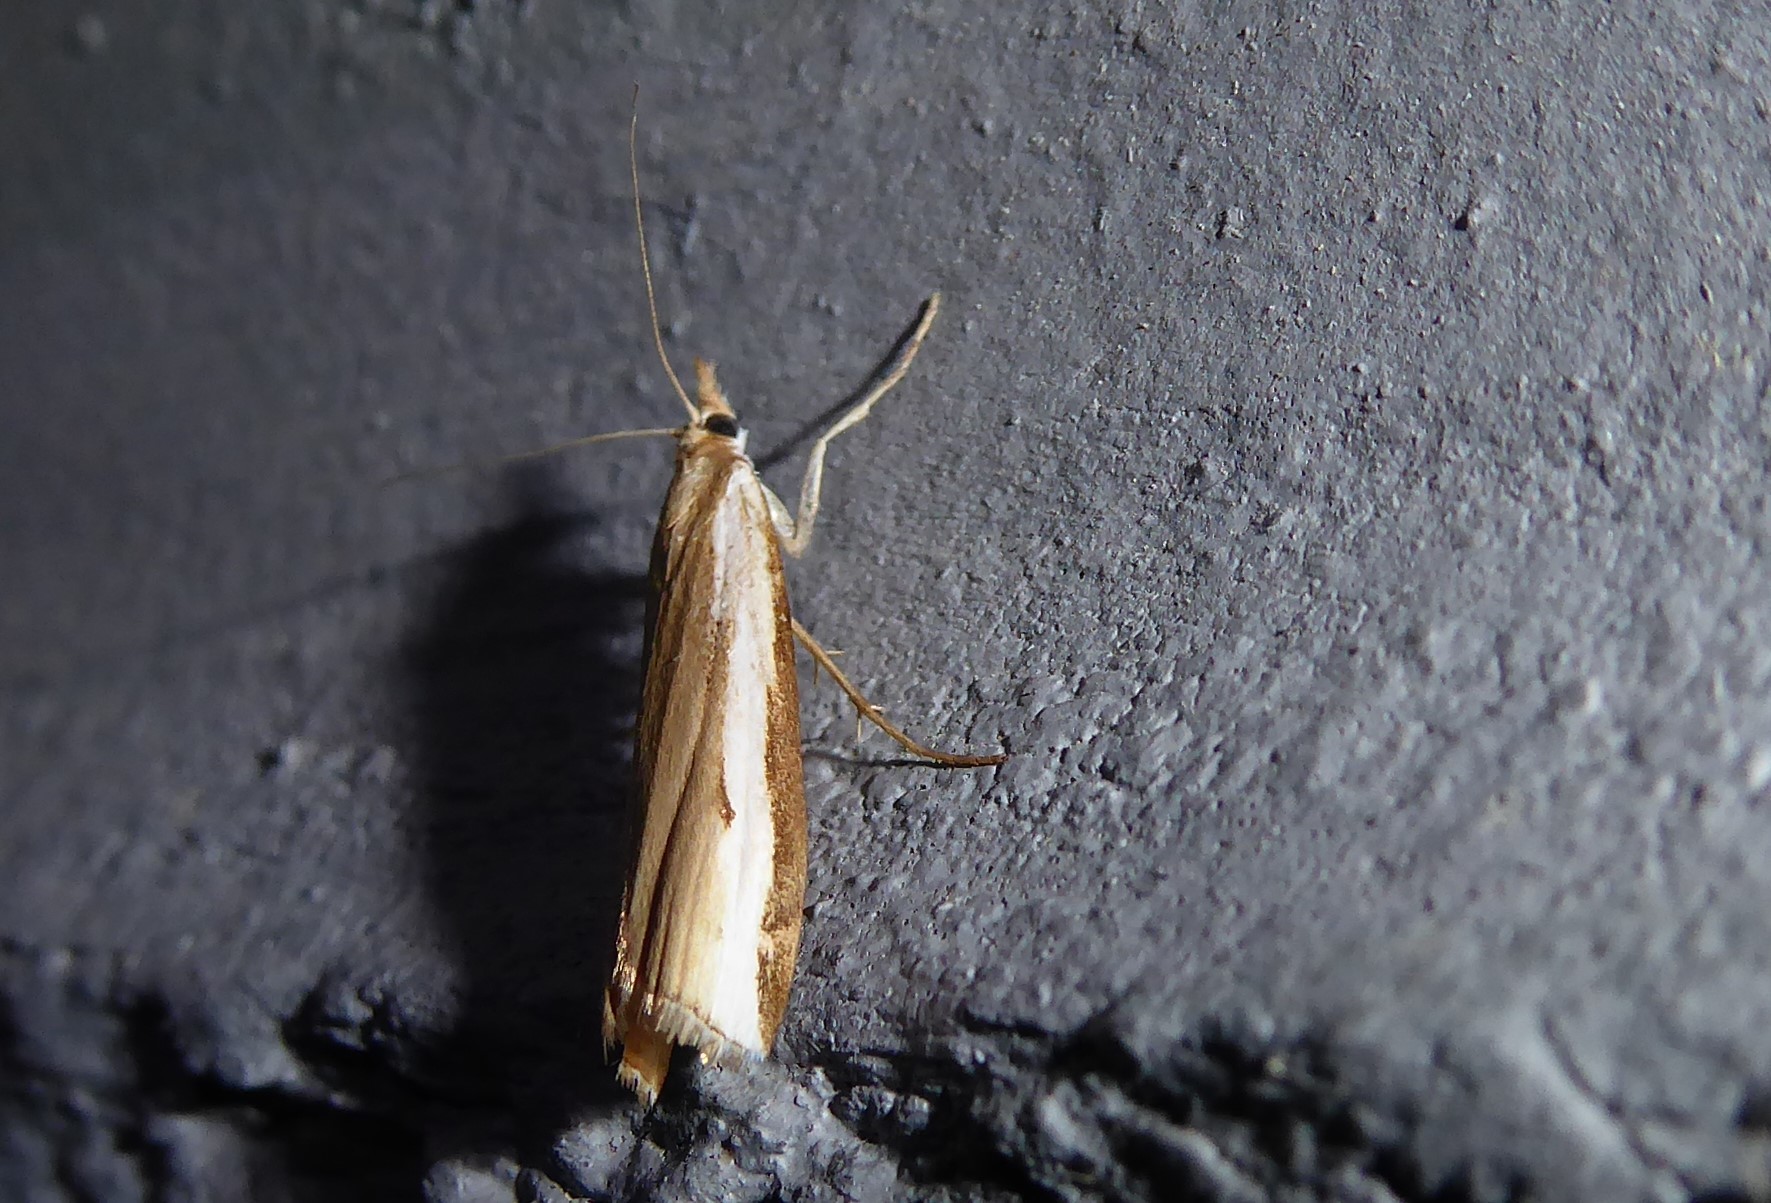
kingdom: Animalia
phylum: Arthropoda
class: Insecta
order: Lepidoptera
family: Crambidae
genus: Orocrambus
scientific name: Orocrambus flexuosellus
